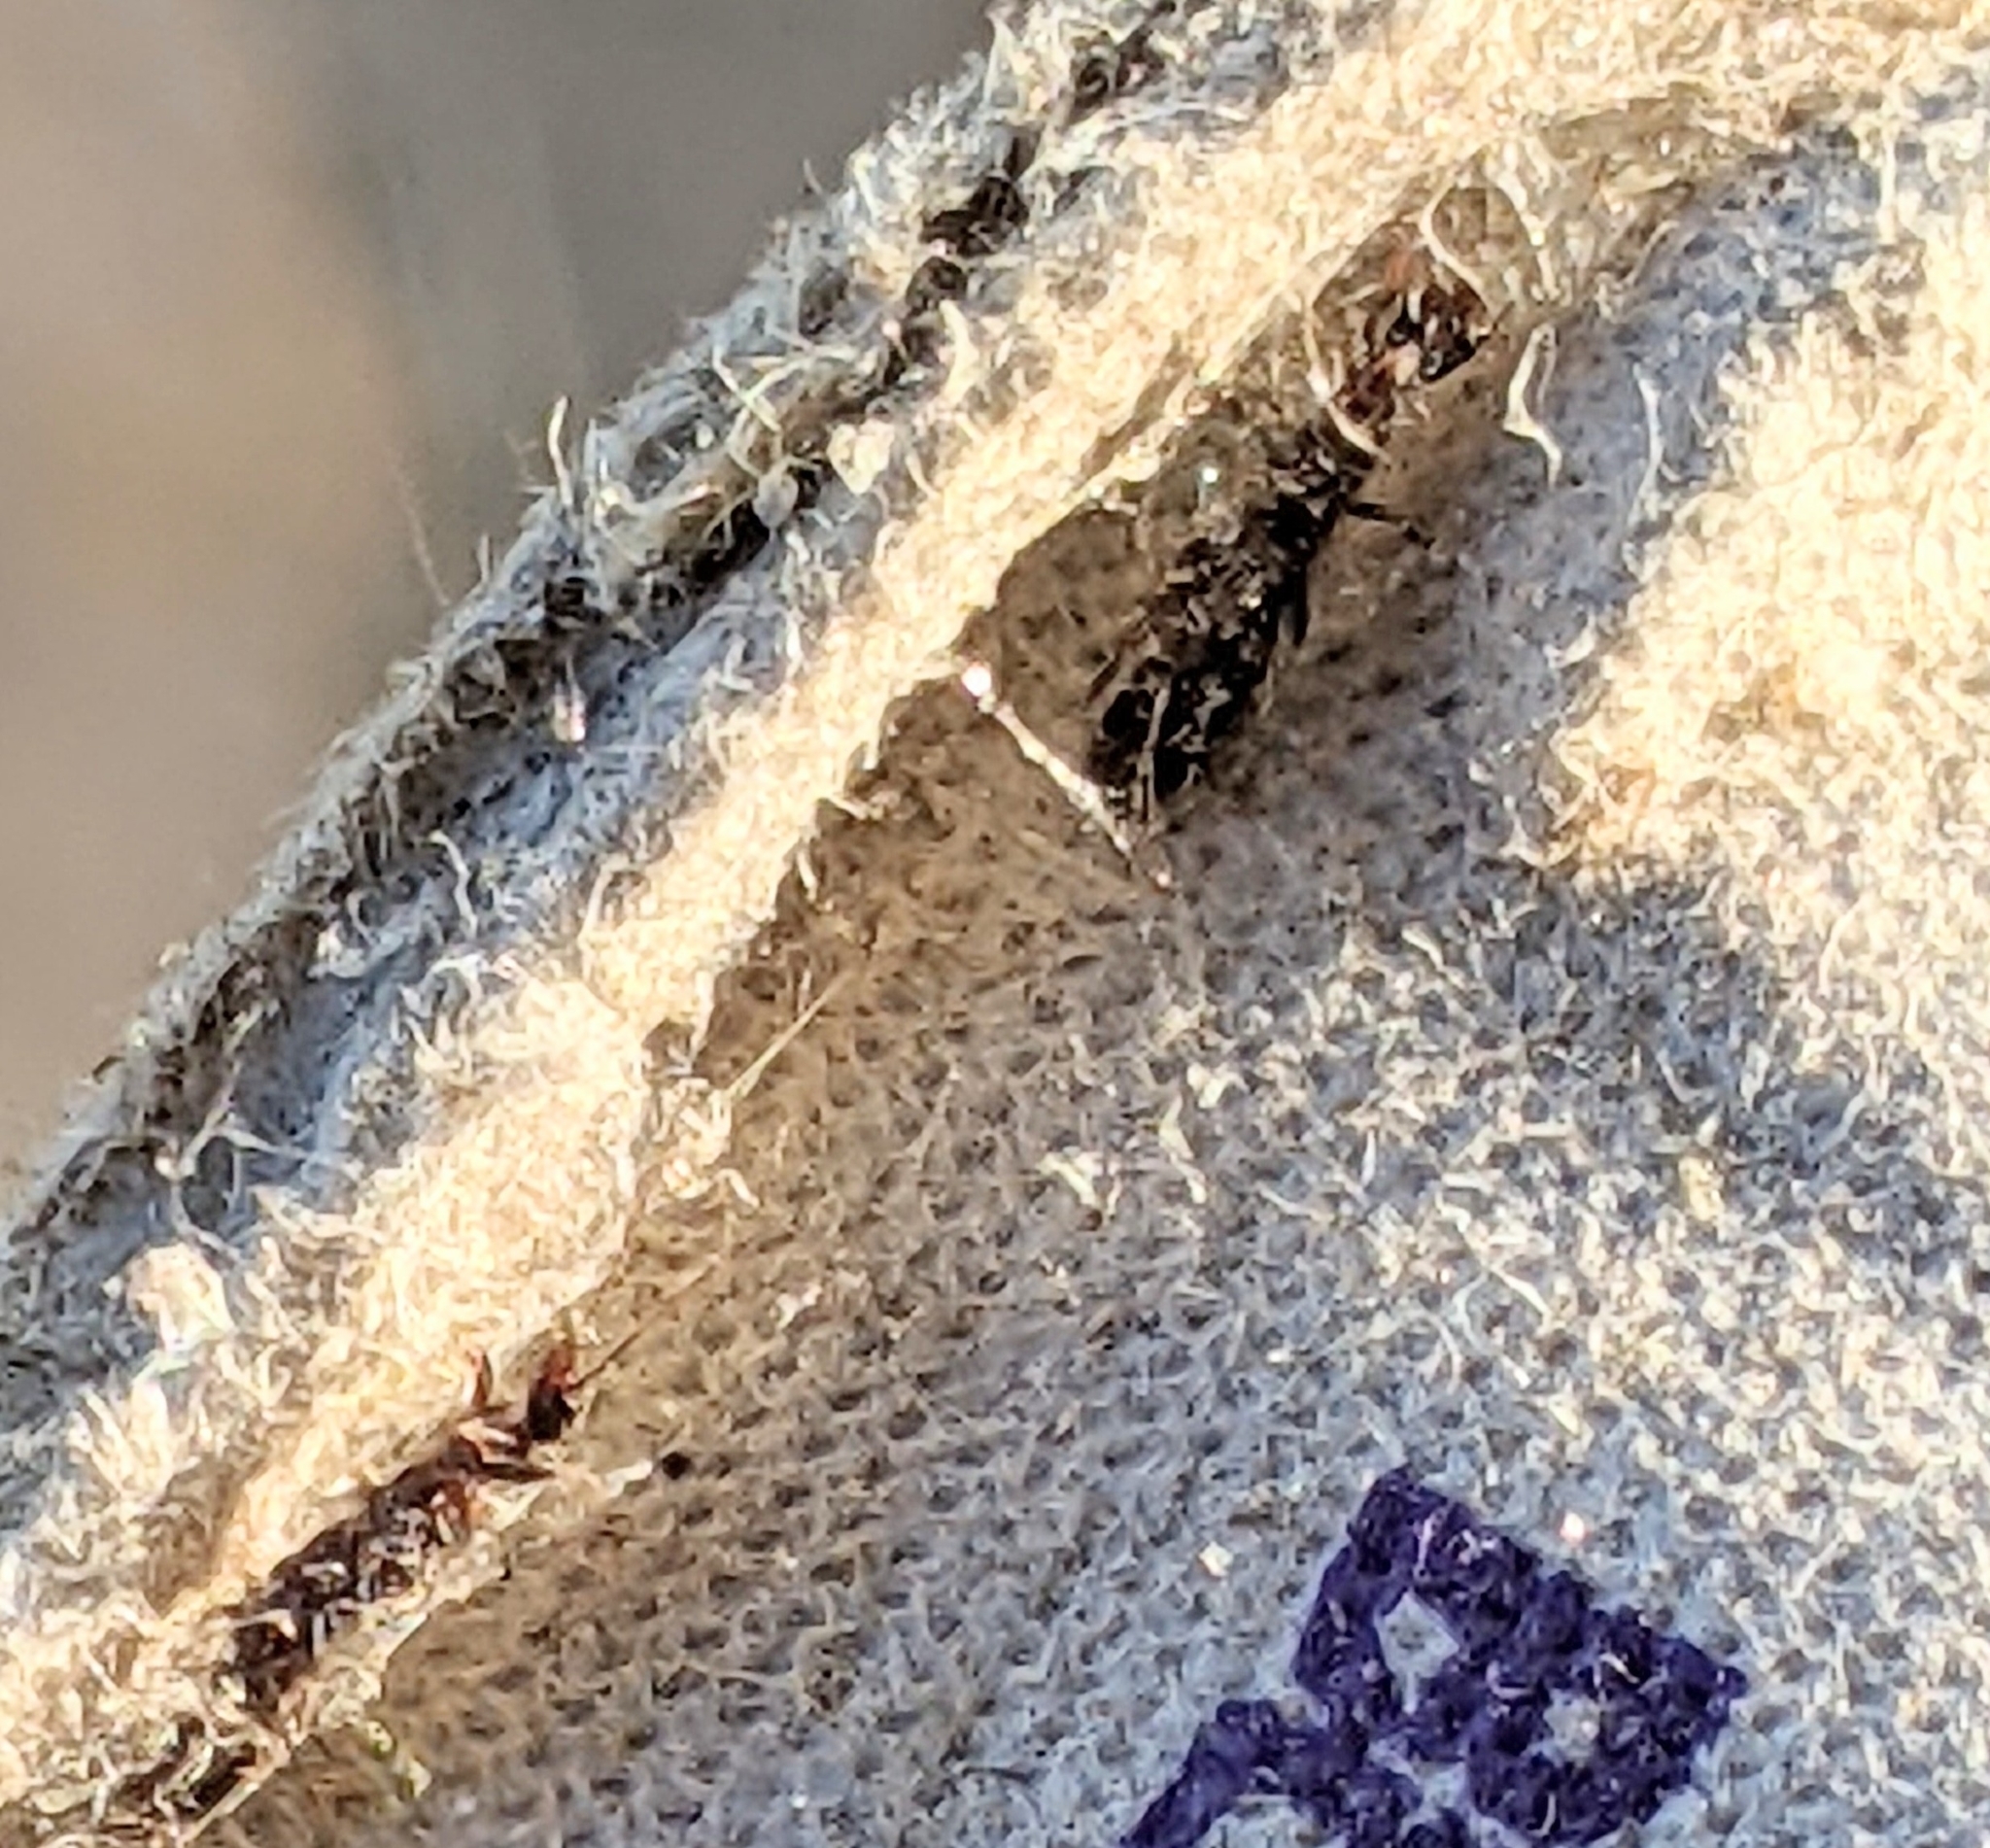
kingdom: Animalia
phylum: Arthropoda
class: Insecta
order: Embioptera
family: Oligotomidae
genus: Oligotoma
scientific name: Oligotoma nigra
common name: Black webspinner
